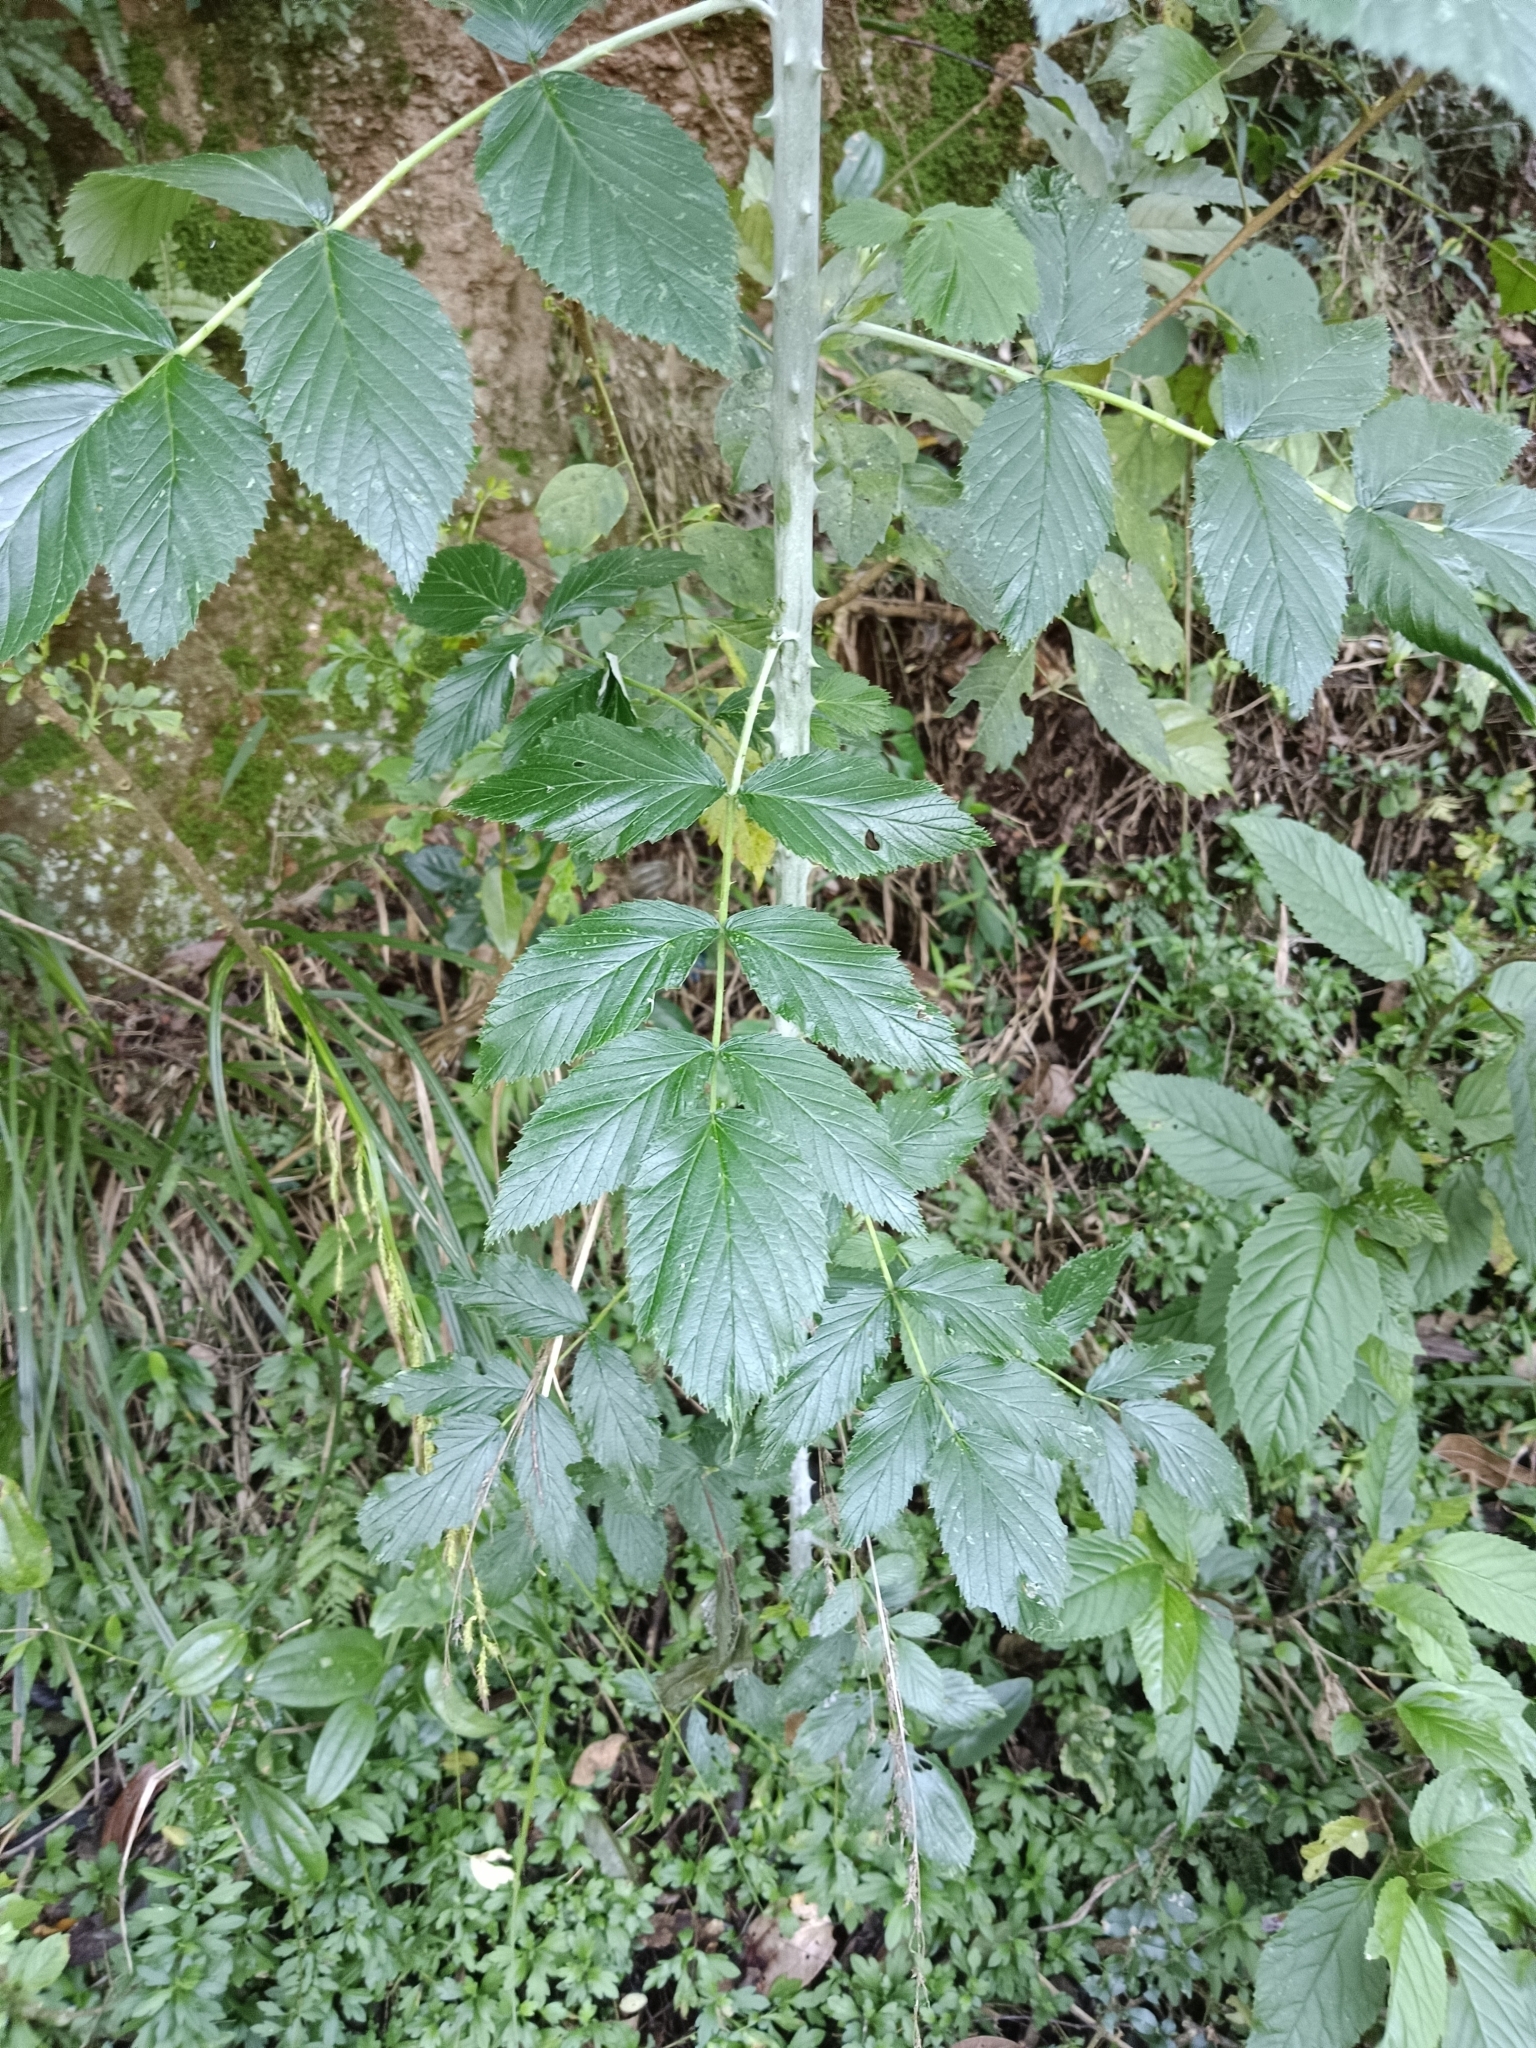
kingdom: Plantae
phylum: Tracheophyta
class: Magnoliopsida
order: Rosales
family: Rosaceae
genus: Rubus
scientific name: Rubus niveus
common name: Snowpeaks raspberry
